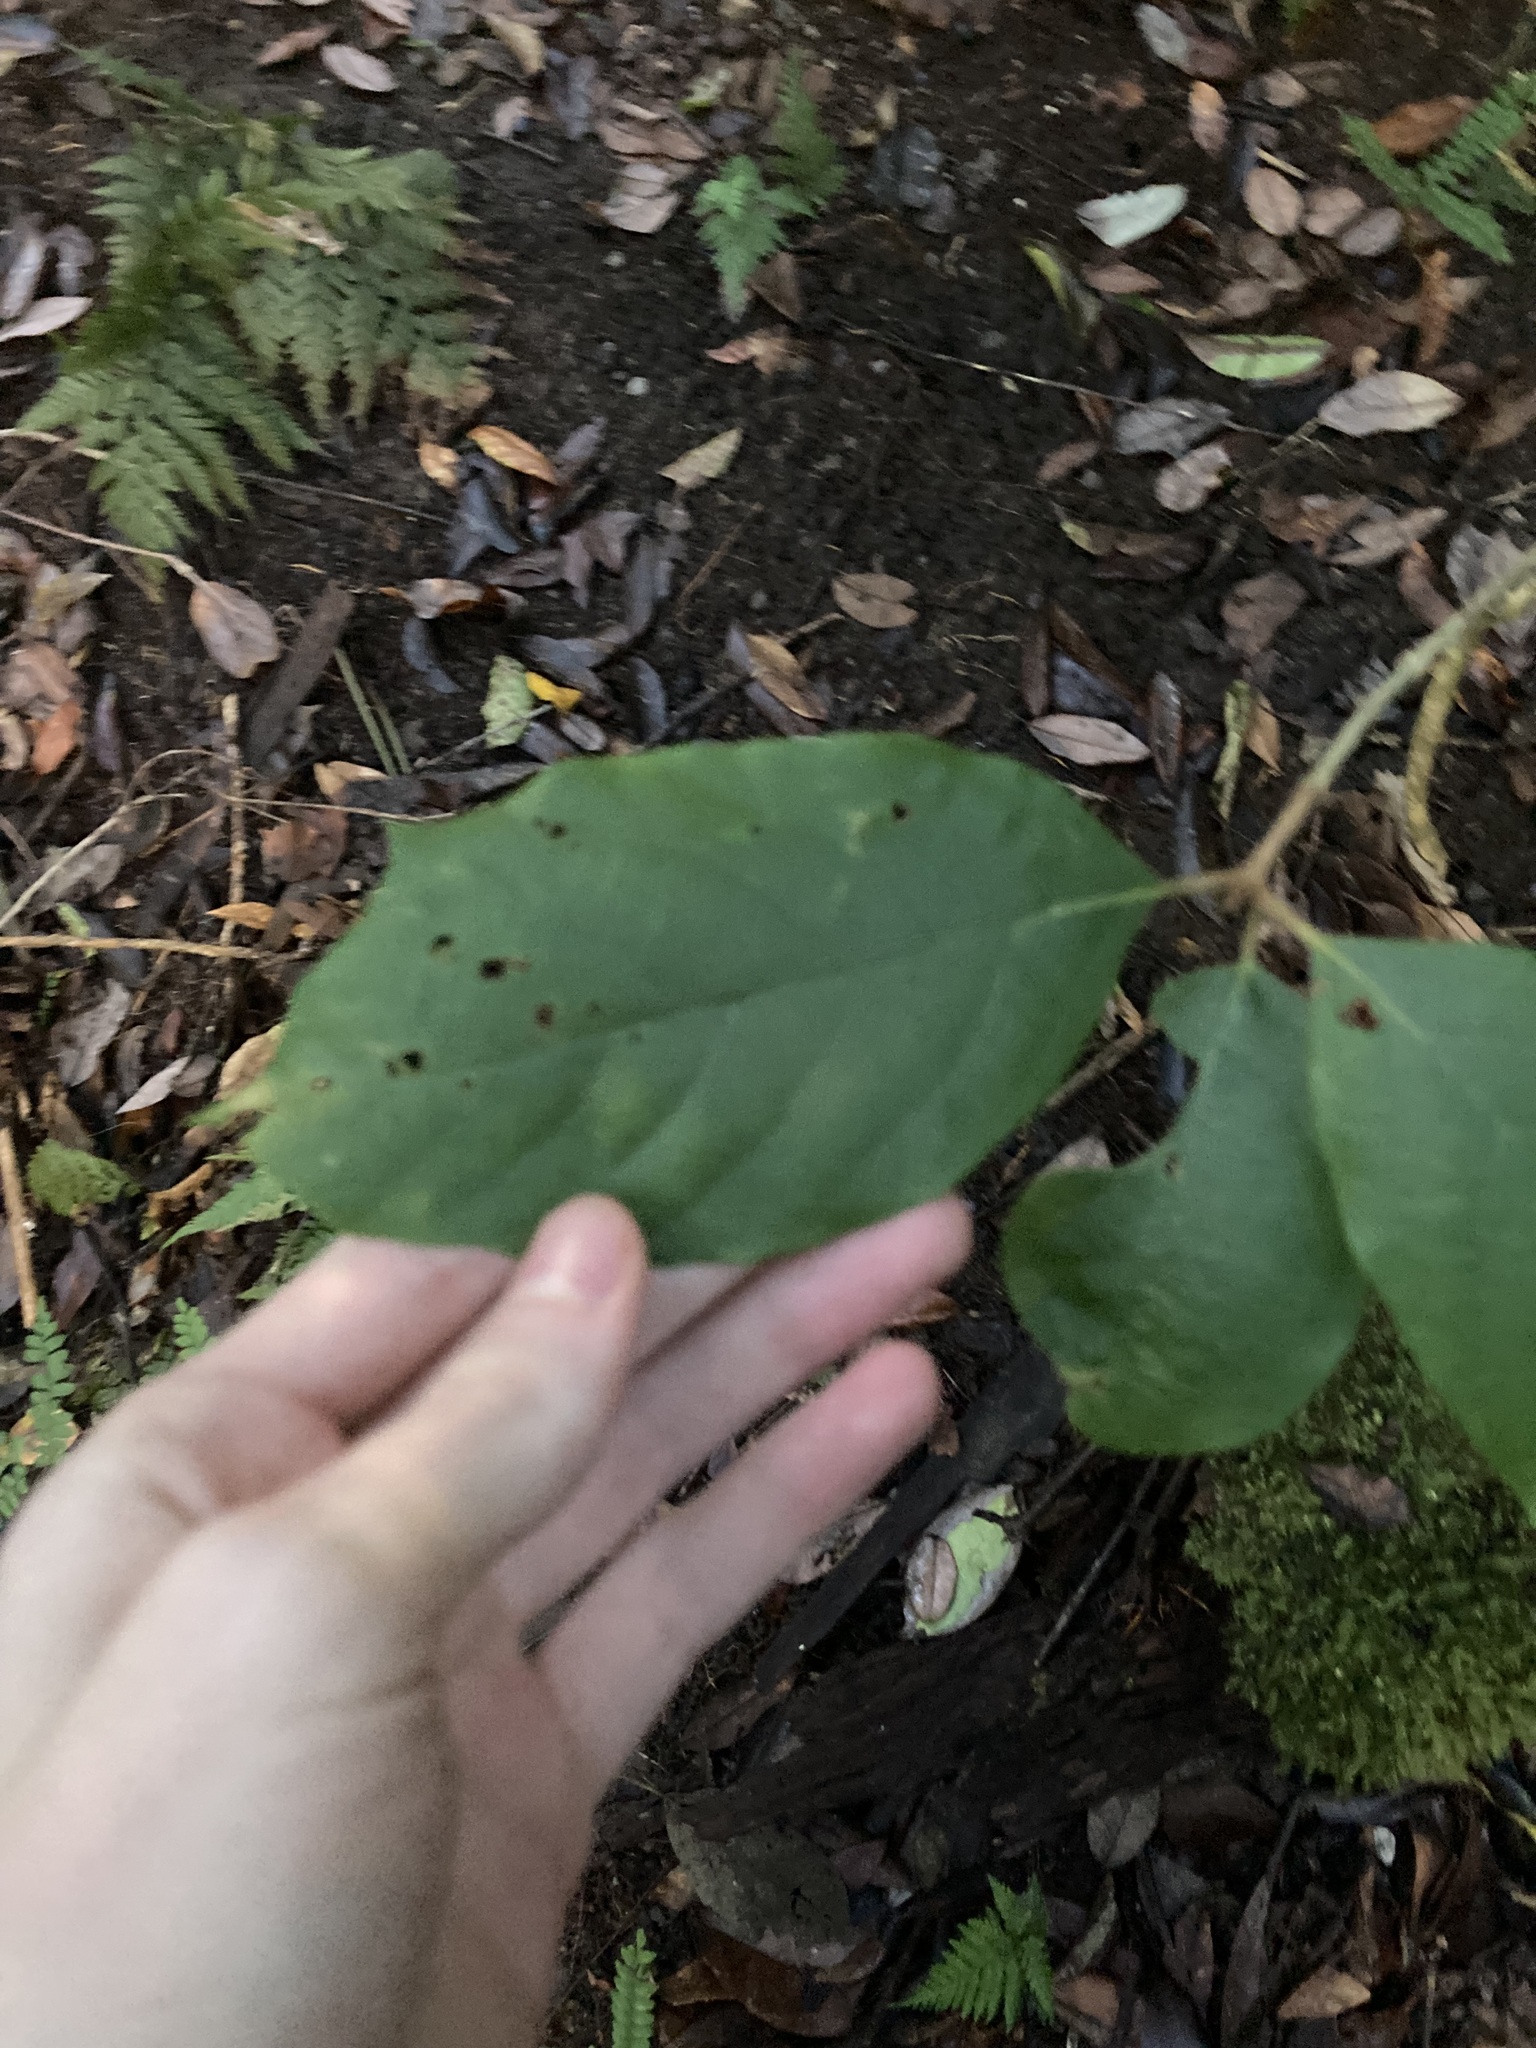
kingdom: Plantae
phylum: Tracheophyta
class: Magnoliopsida
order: Lamiales
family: Lamiaceae
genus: Gmelina
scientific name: Gmelina leichhardtii
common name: Queensland-beech
